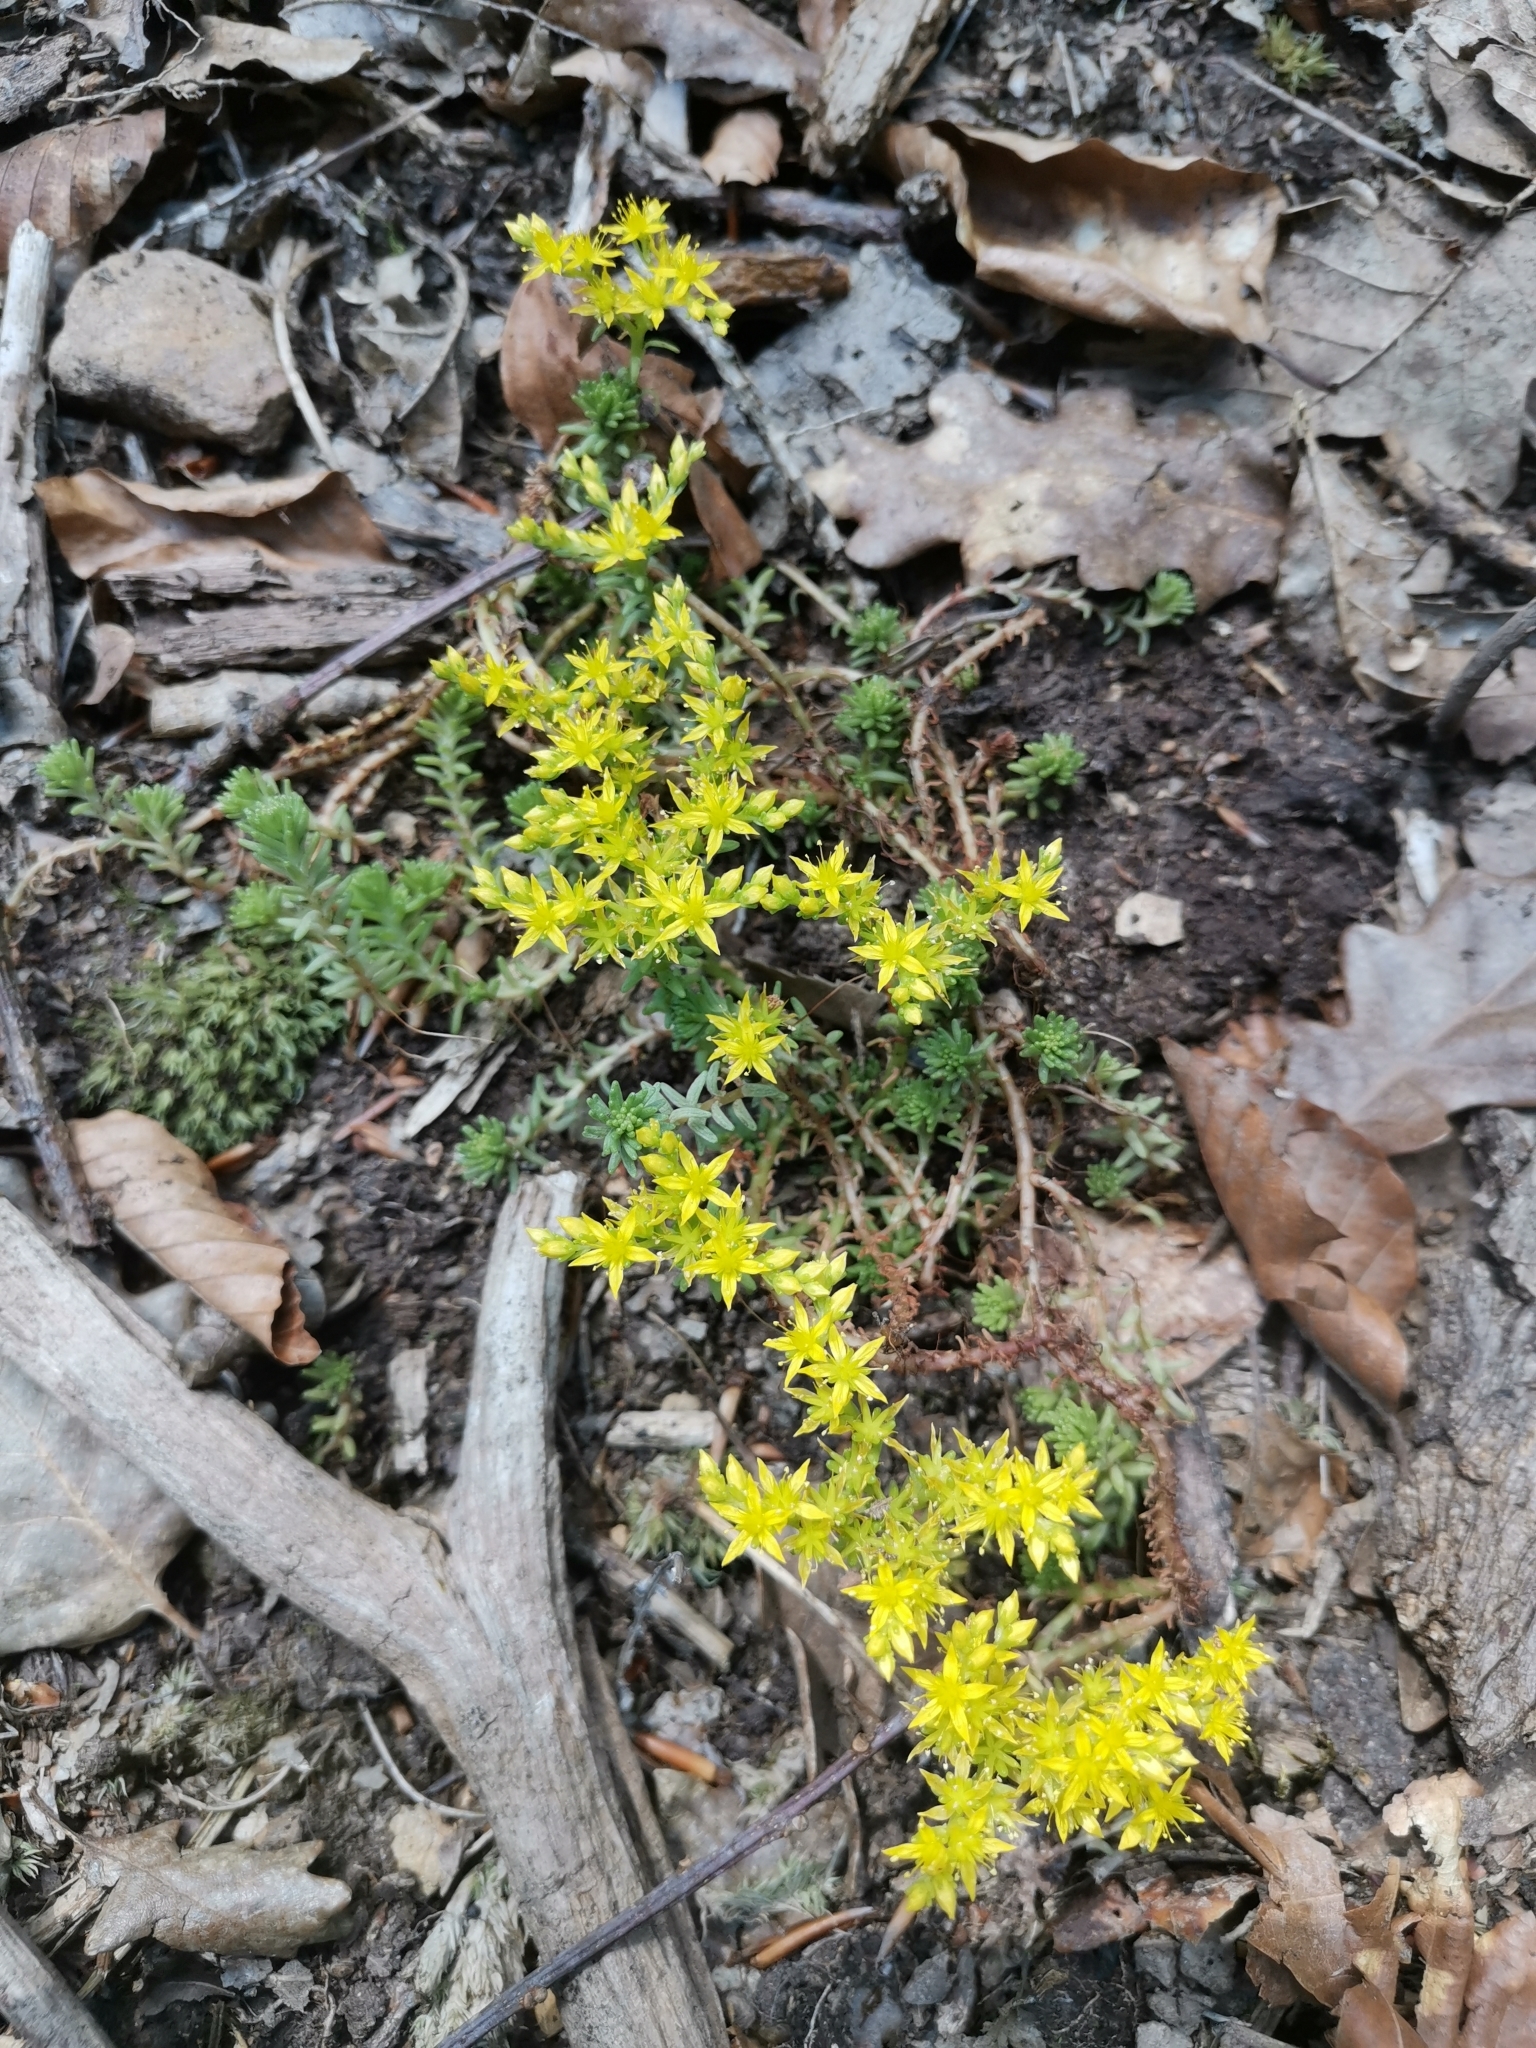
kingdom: Plantae
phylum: Tracheophyta
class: Magnoliopsida
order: Saxifragales
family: Crassulaceae
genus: Sedum
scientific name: Sedum sexangulare
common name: Tasteless stonecrop
